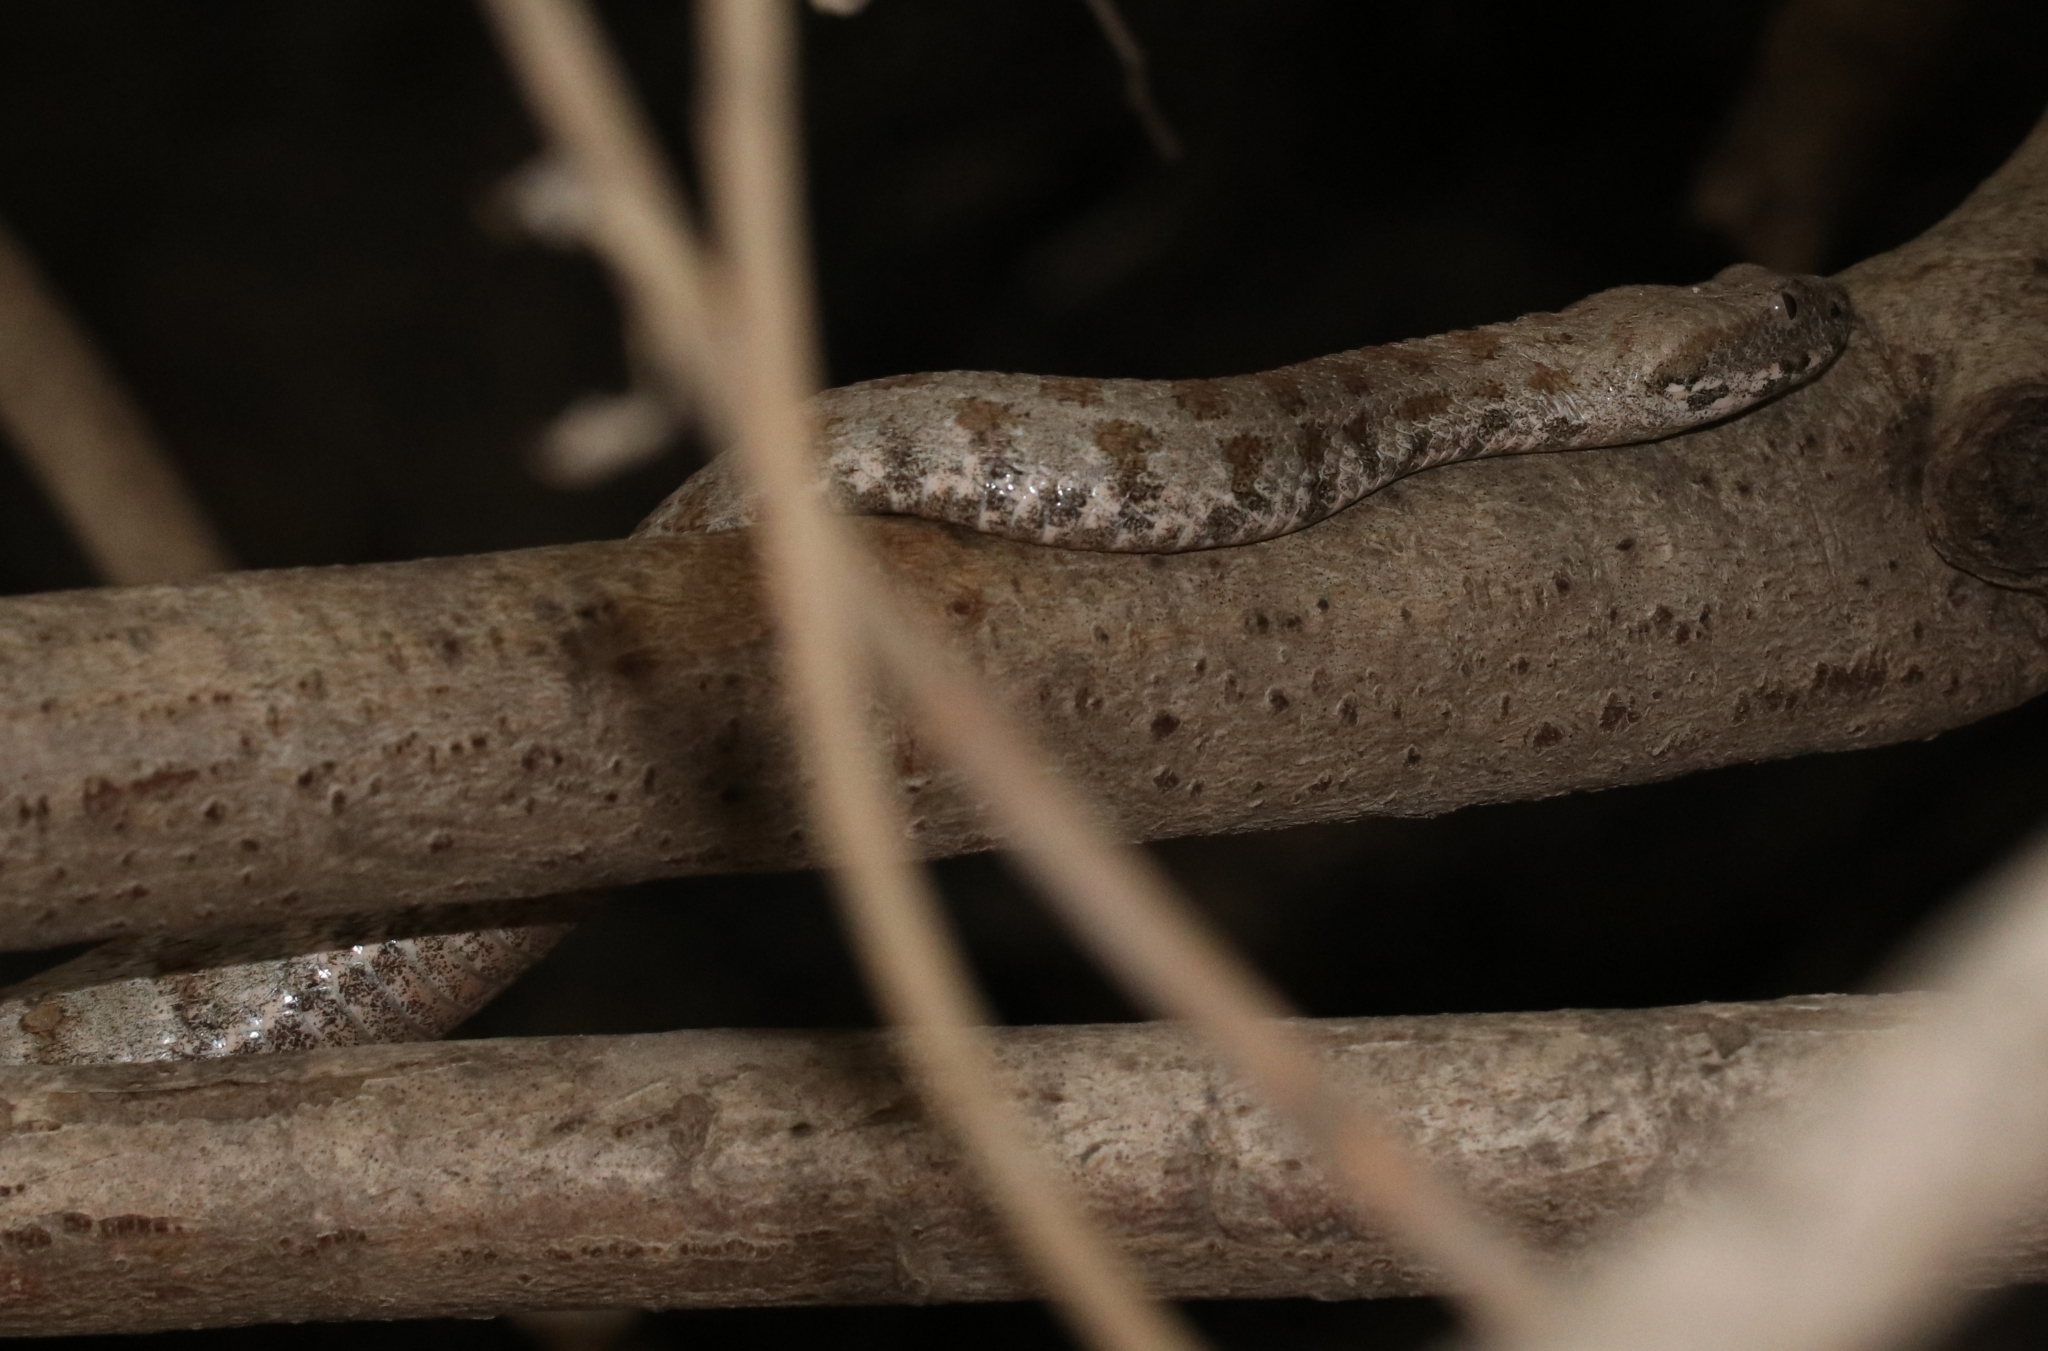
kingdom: Animalia
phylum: Chordata
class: Squamata
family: Viperidae
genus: Macrovipera
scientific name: Macrovipera lebetinus
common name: Levantine viper
